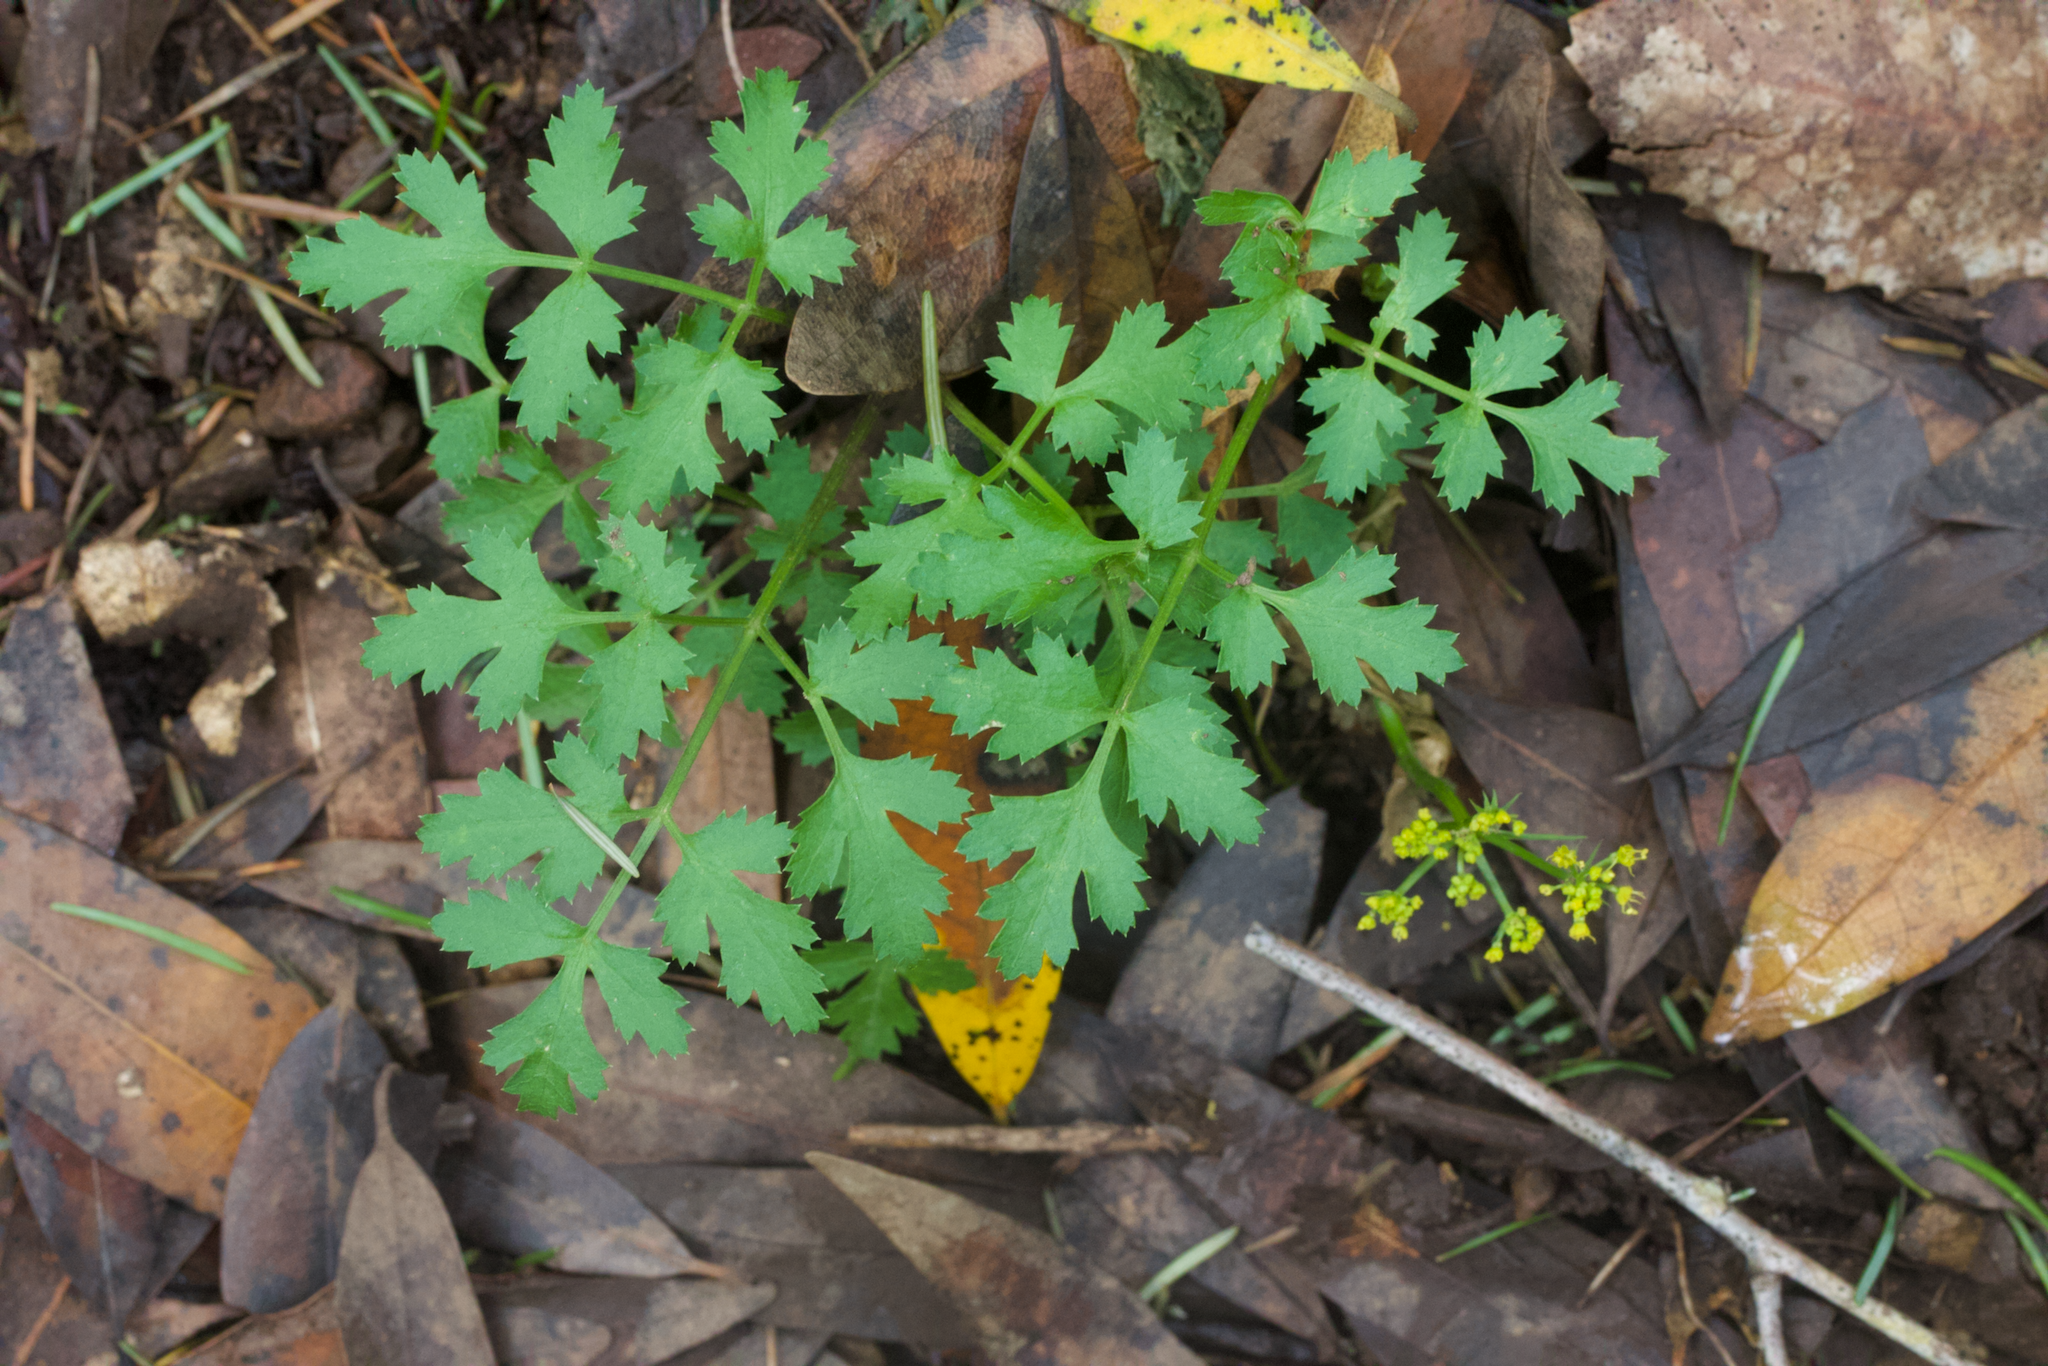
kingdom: Plantae
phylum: Tracheophyta
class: Magnoliopsida
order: Apiales
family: Apiaceae
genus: Tauschia
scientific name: Tauschia kelloggii
